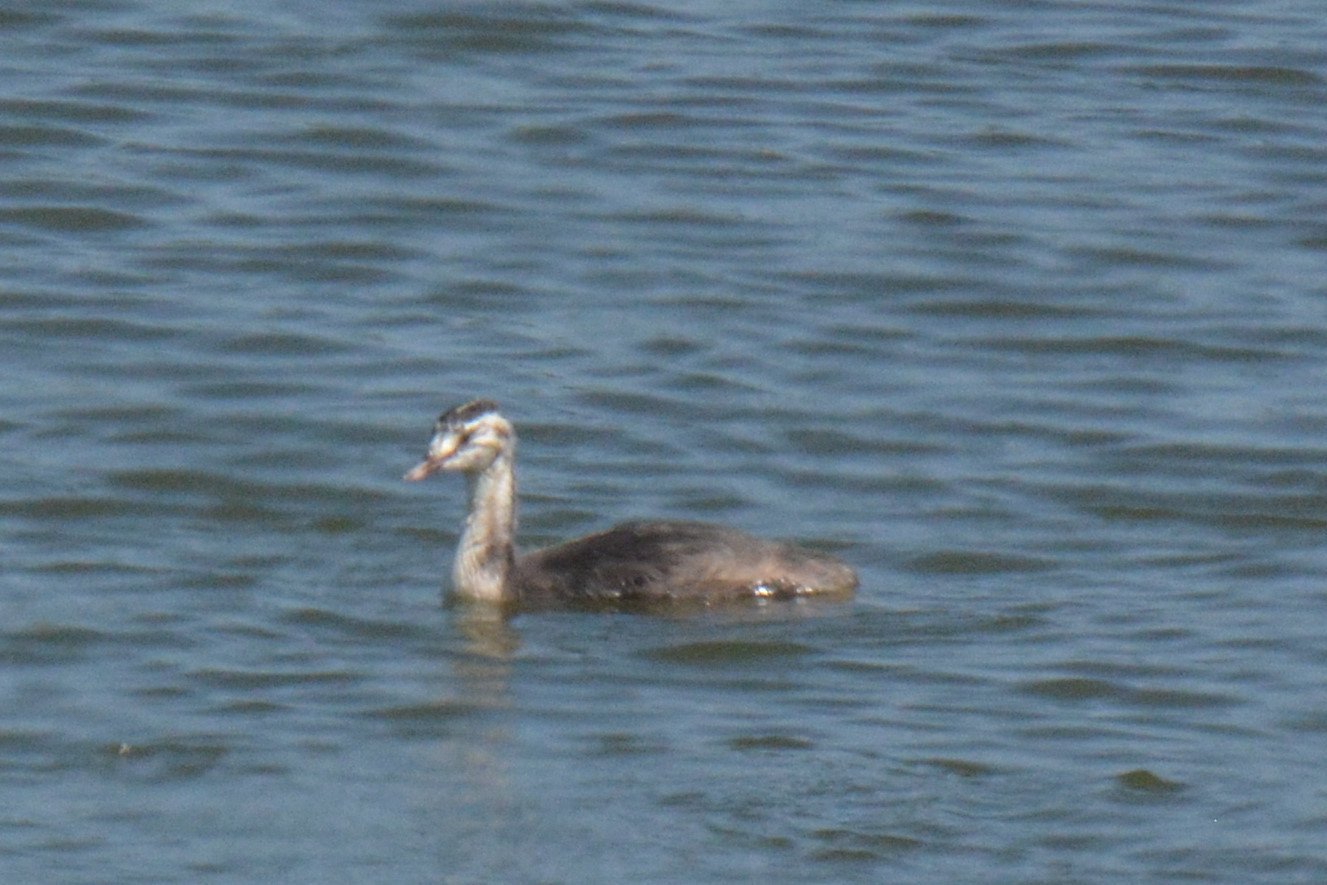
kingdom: Animalia
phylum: Chordata
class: Aves
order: Podicipediformes
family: Podicipedidae
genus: Podiceps
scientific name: Podiceps cristatus
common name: Great crested grebe
